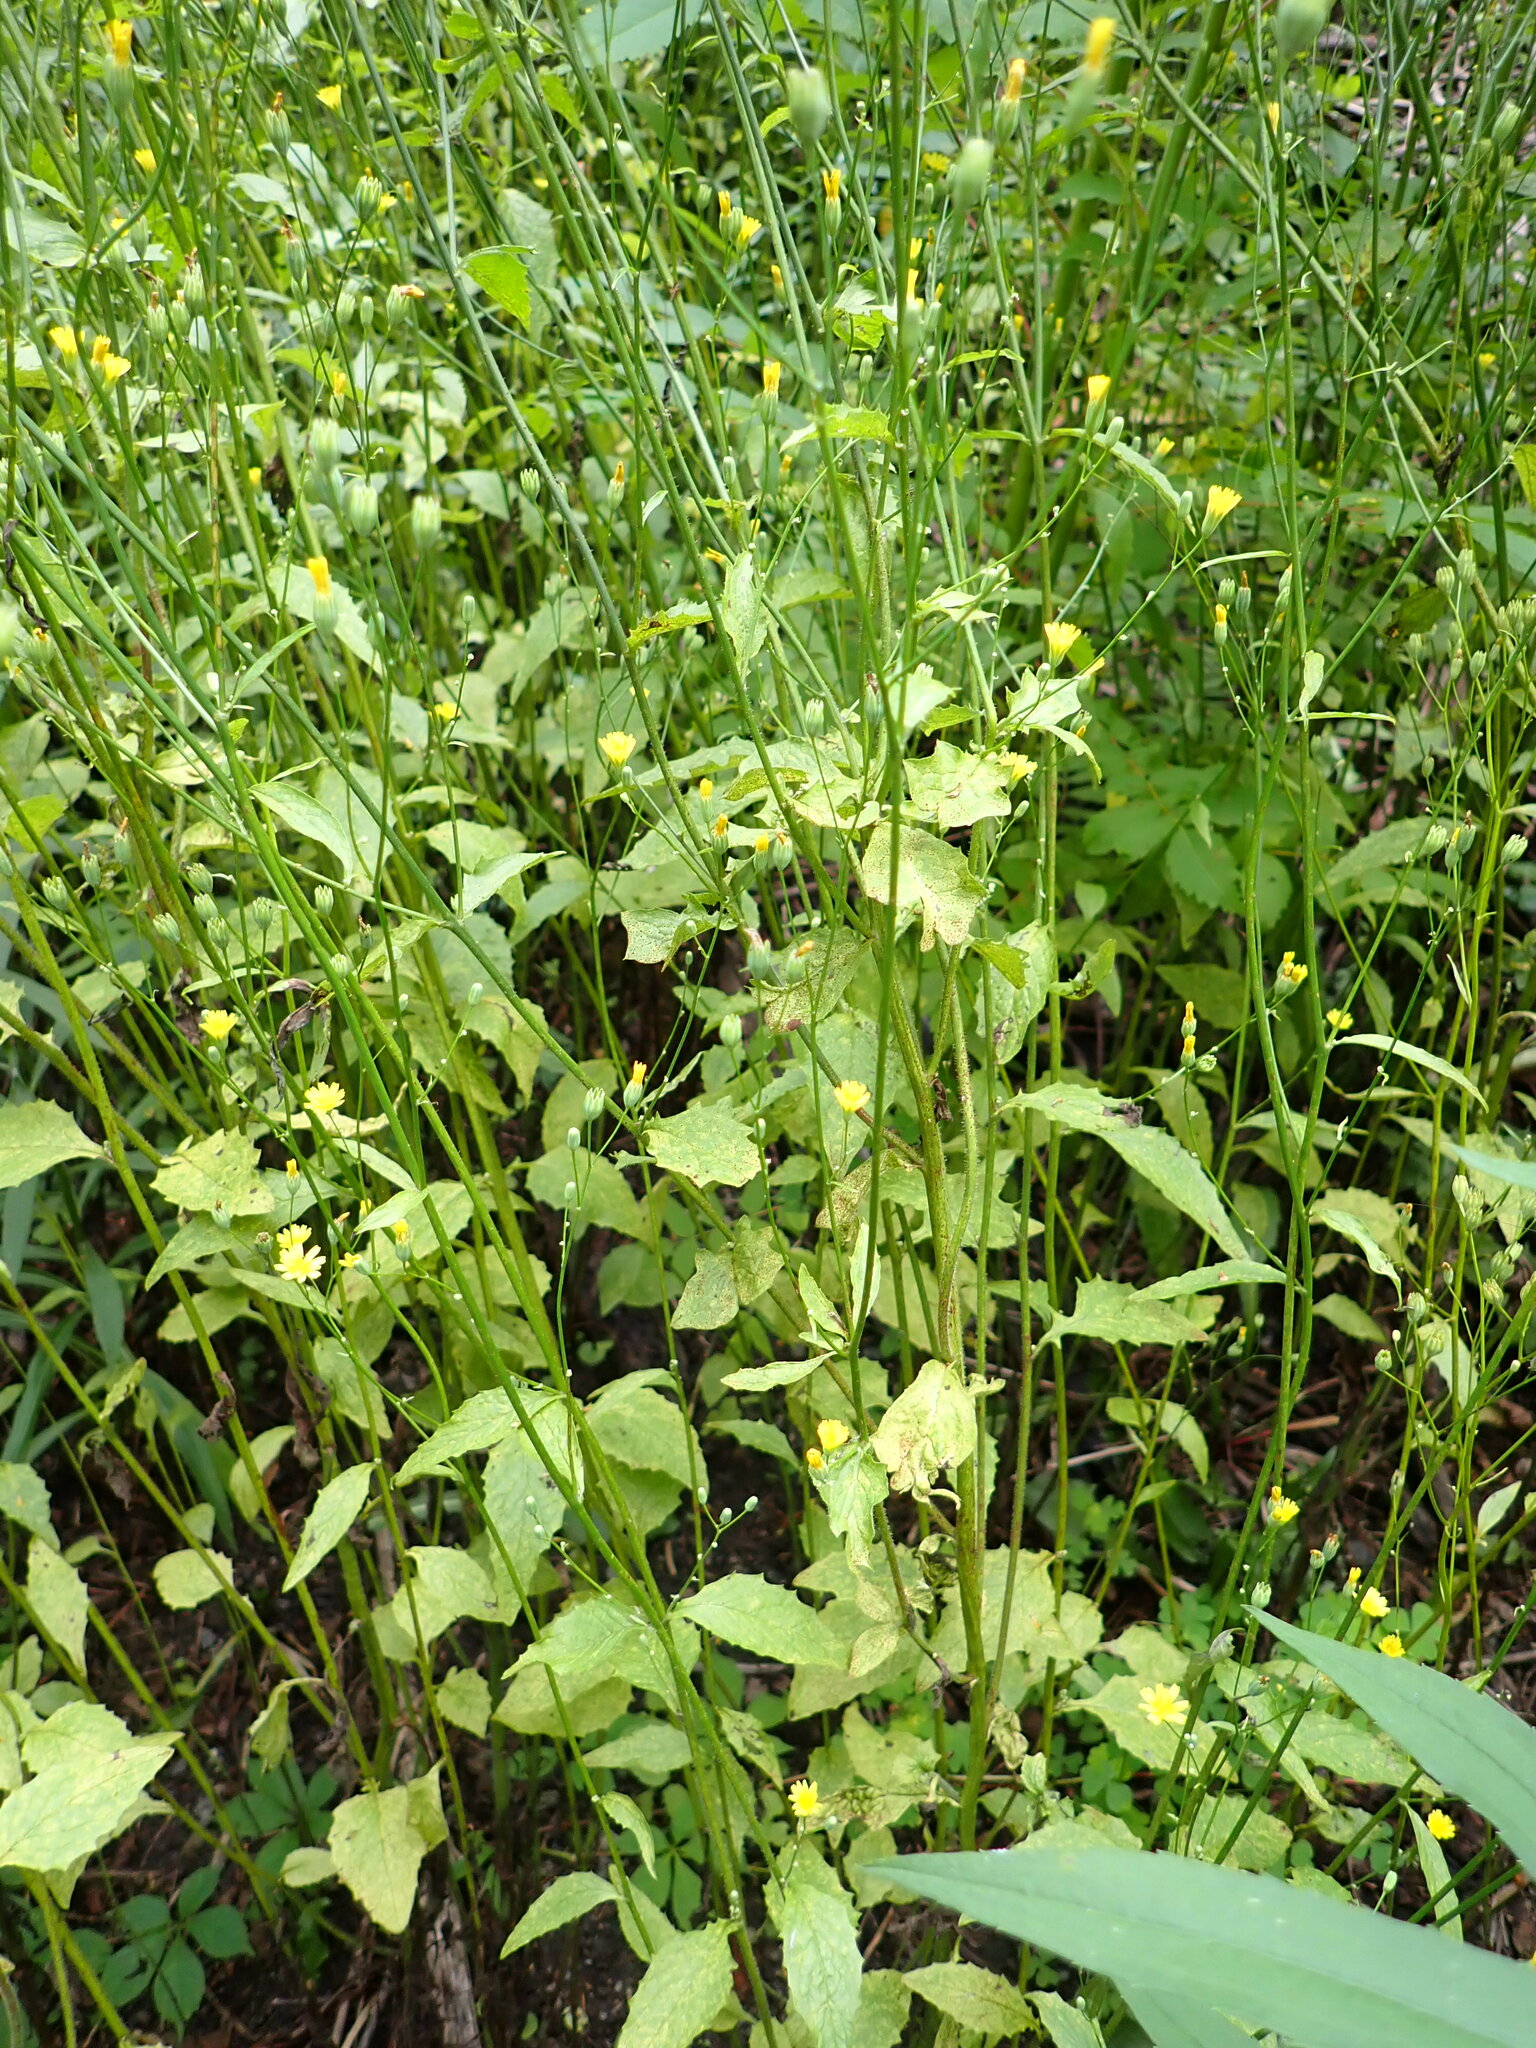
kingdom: Plantae
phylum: Tracheophyta
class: Magnoliopsida
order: Asterales
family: Asteraceae
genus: Lapsana
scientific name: Lapsana communis
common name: Nipplewort
